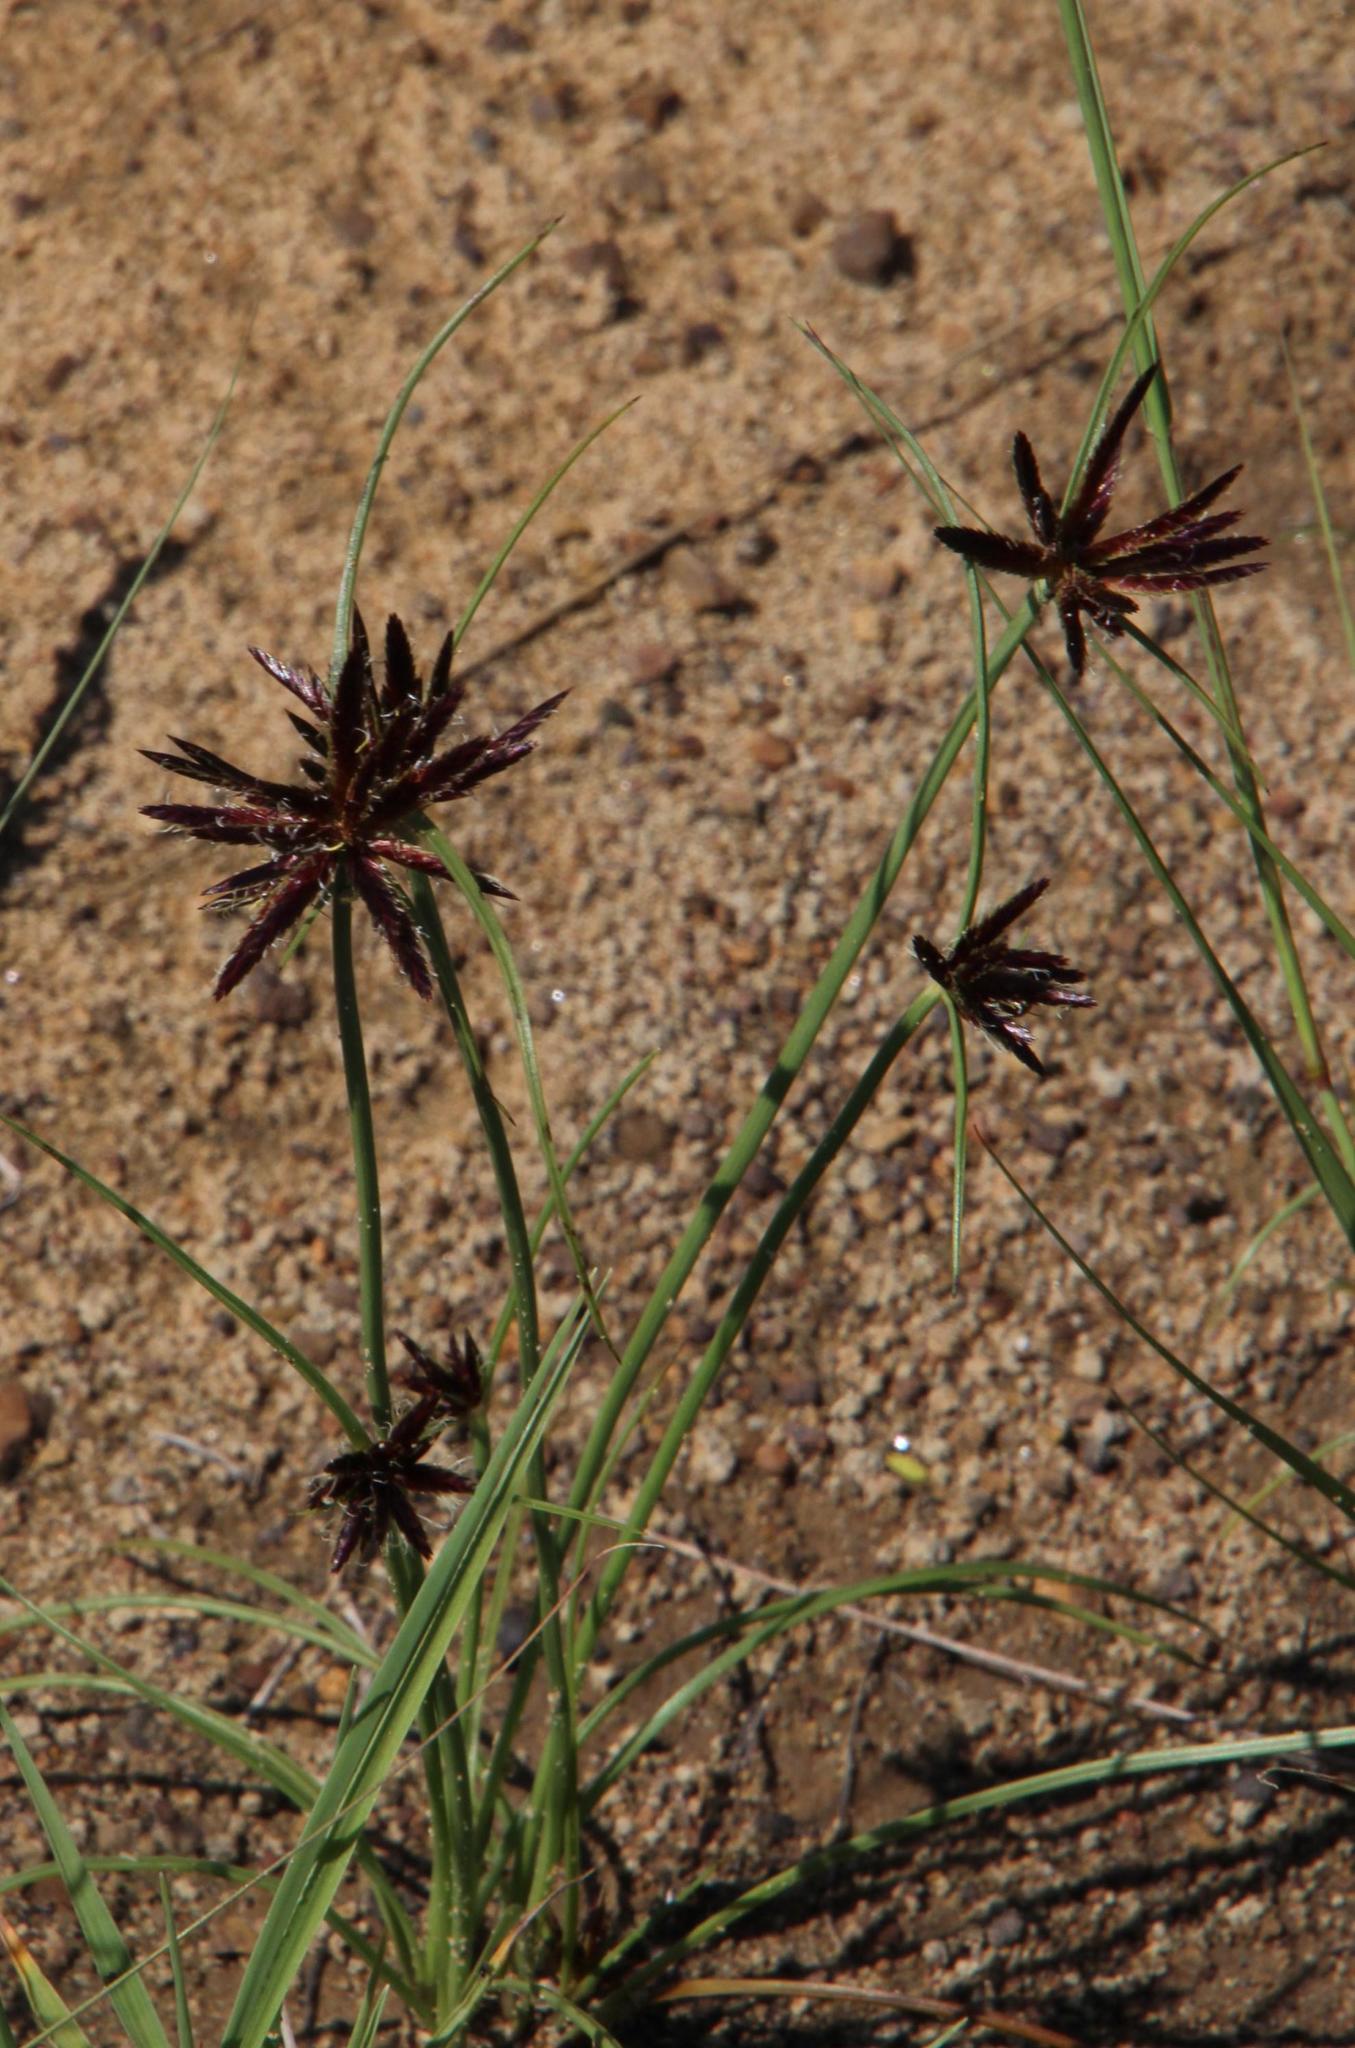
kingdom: Plantae
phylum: Tracheophyta
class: Liliopsida
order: Poales
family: Cyperaceae
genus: Cyperus
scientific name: Cyperus rupestris
